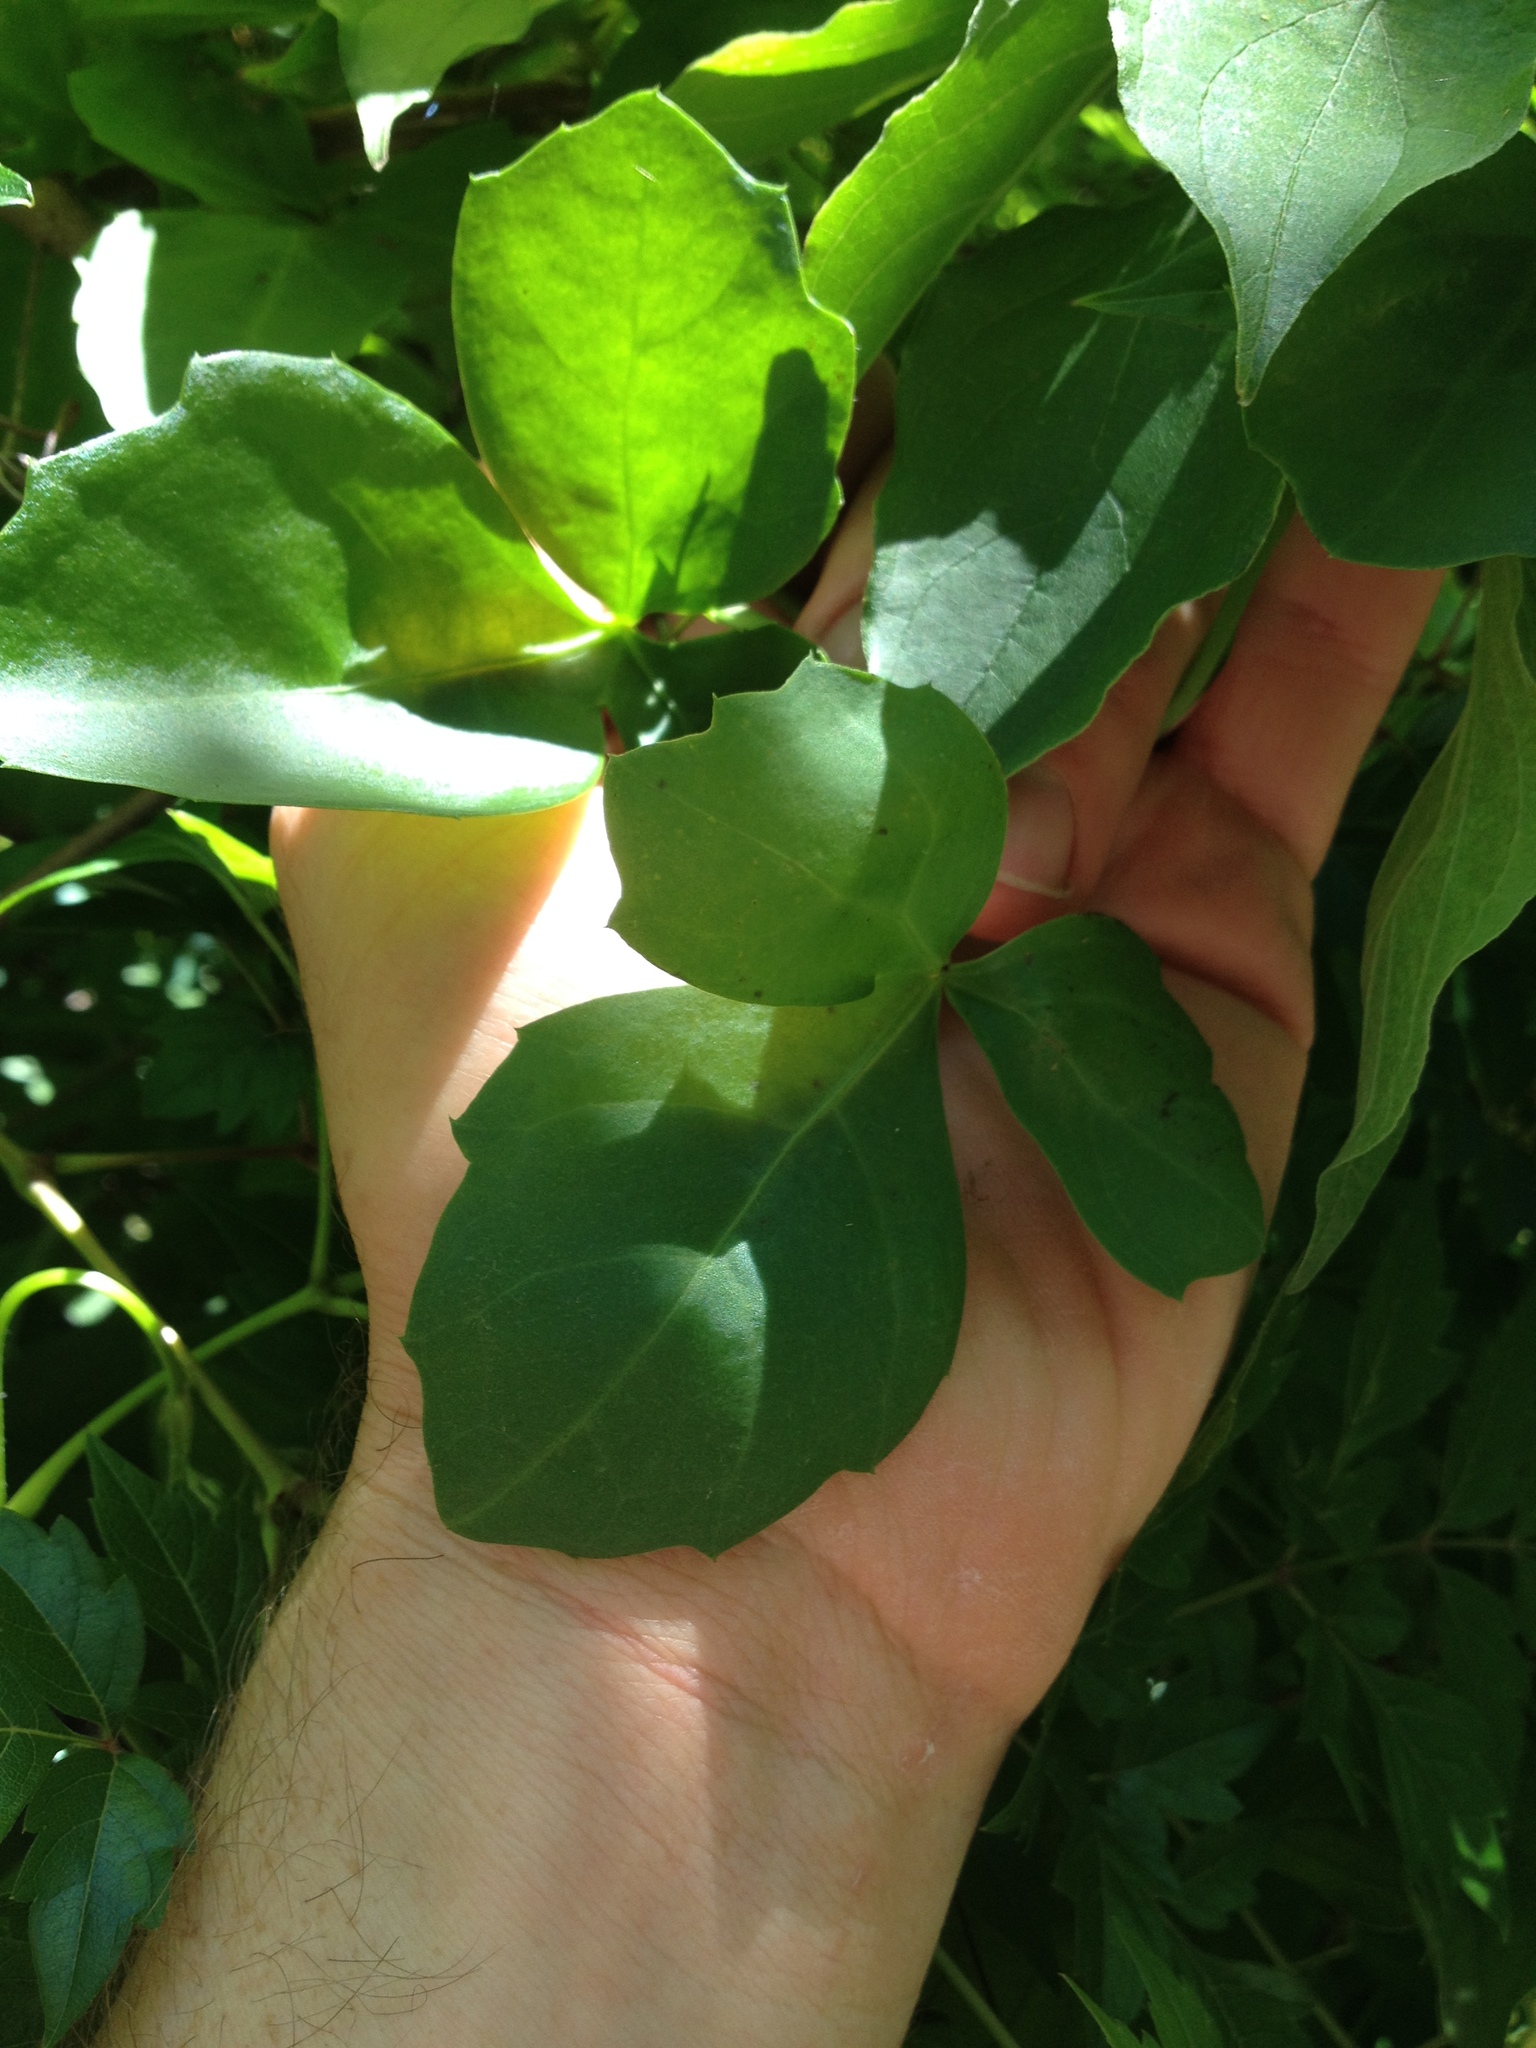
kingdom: Plantae
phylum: Tracheophyta
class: Magnoliopsida
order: Vitales
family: Vitaceae
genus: Cissus
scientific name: Cissus trifoliata
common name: Vine-sorrel
